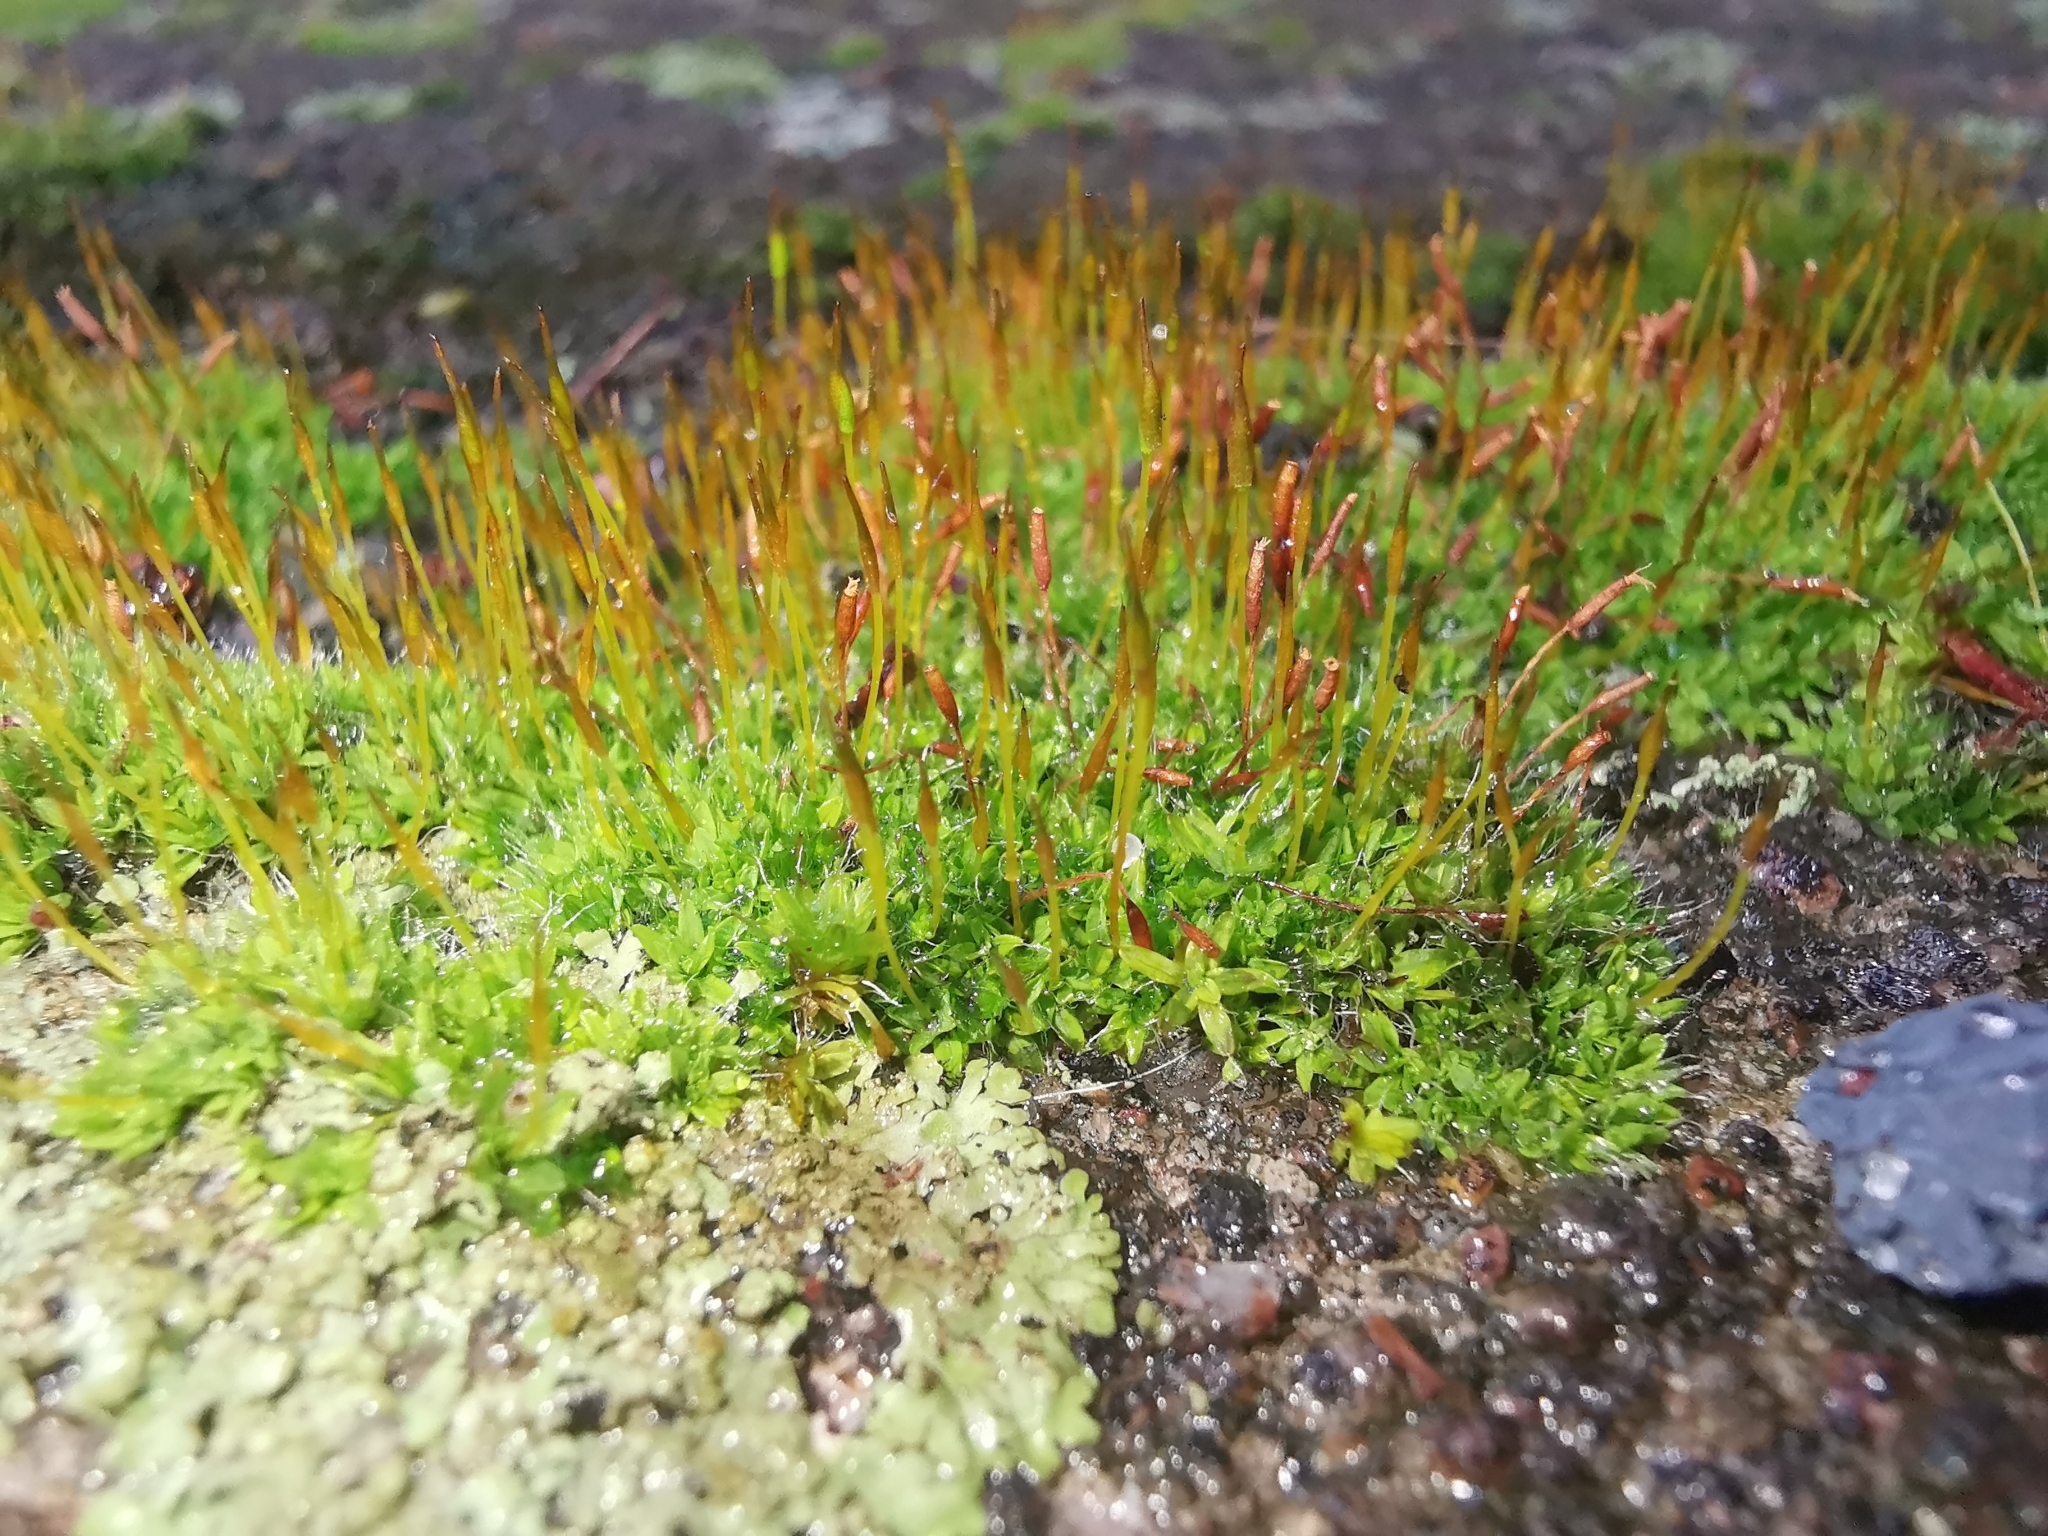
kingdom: Plantae
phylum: Bryophyta
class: Bryopsida
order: Pottiales
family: Pottiaceae
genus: Tortula
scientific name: Tortula muralis
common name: Wall screw-moss
